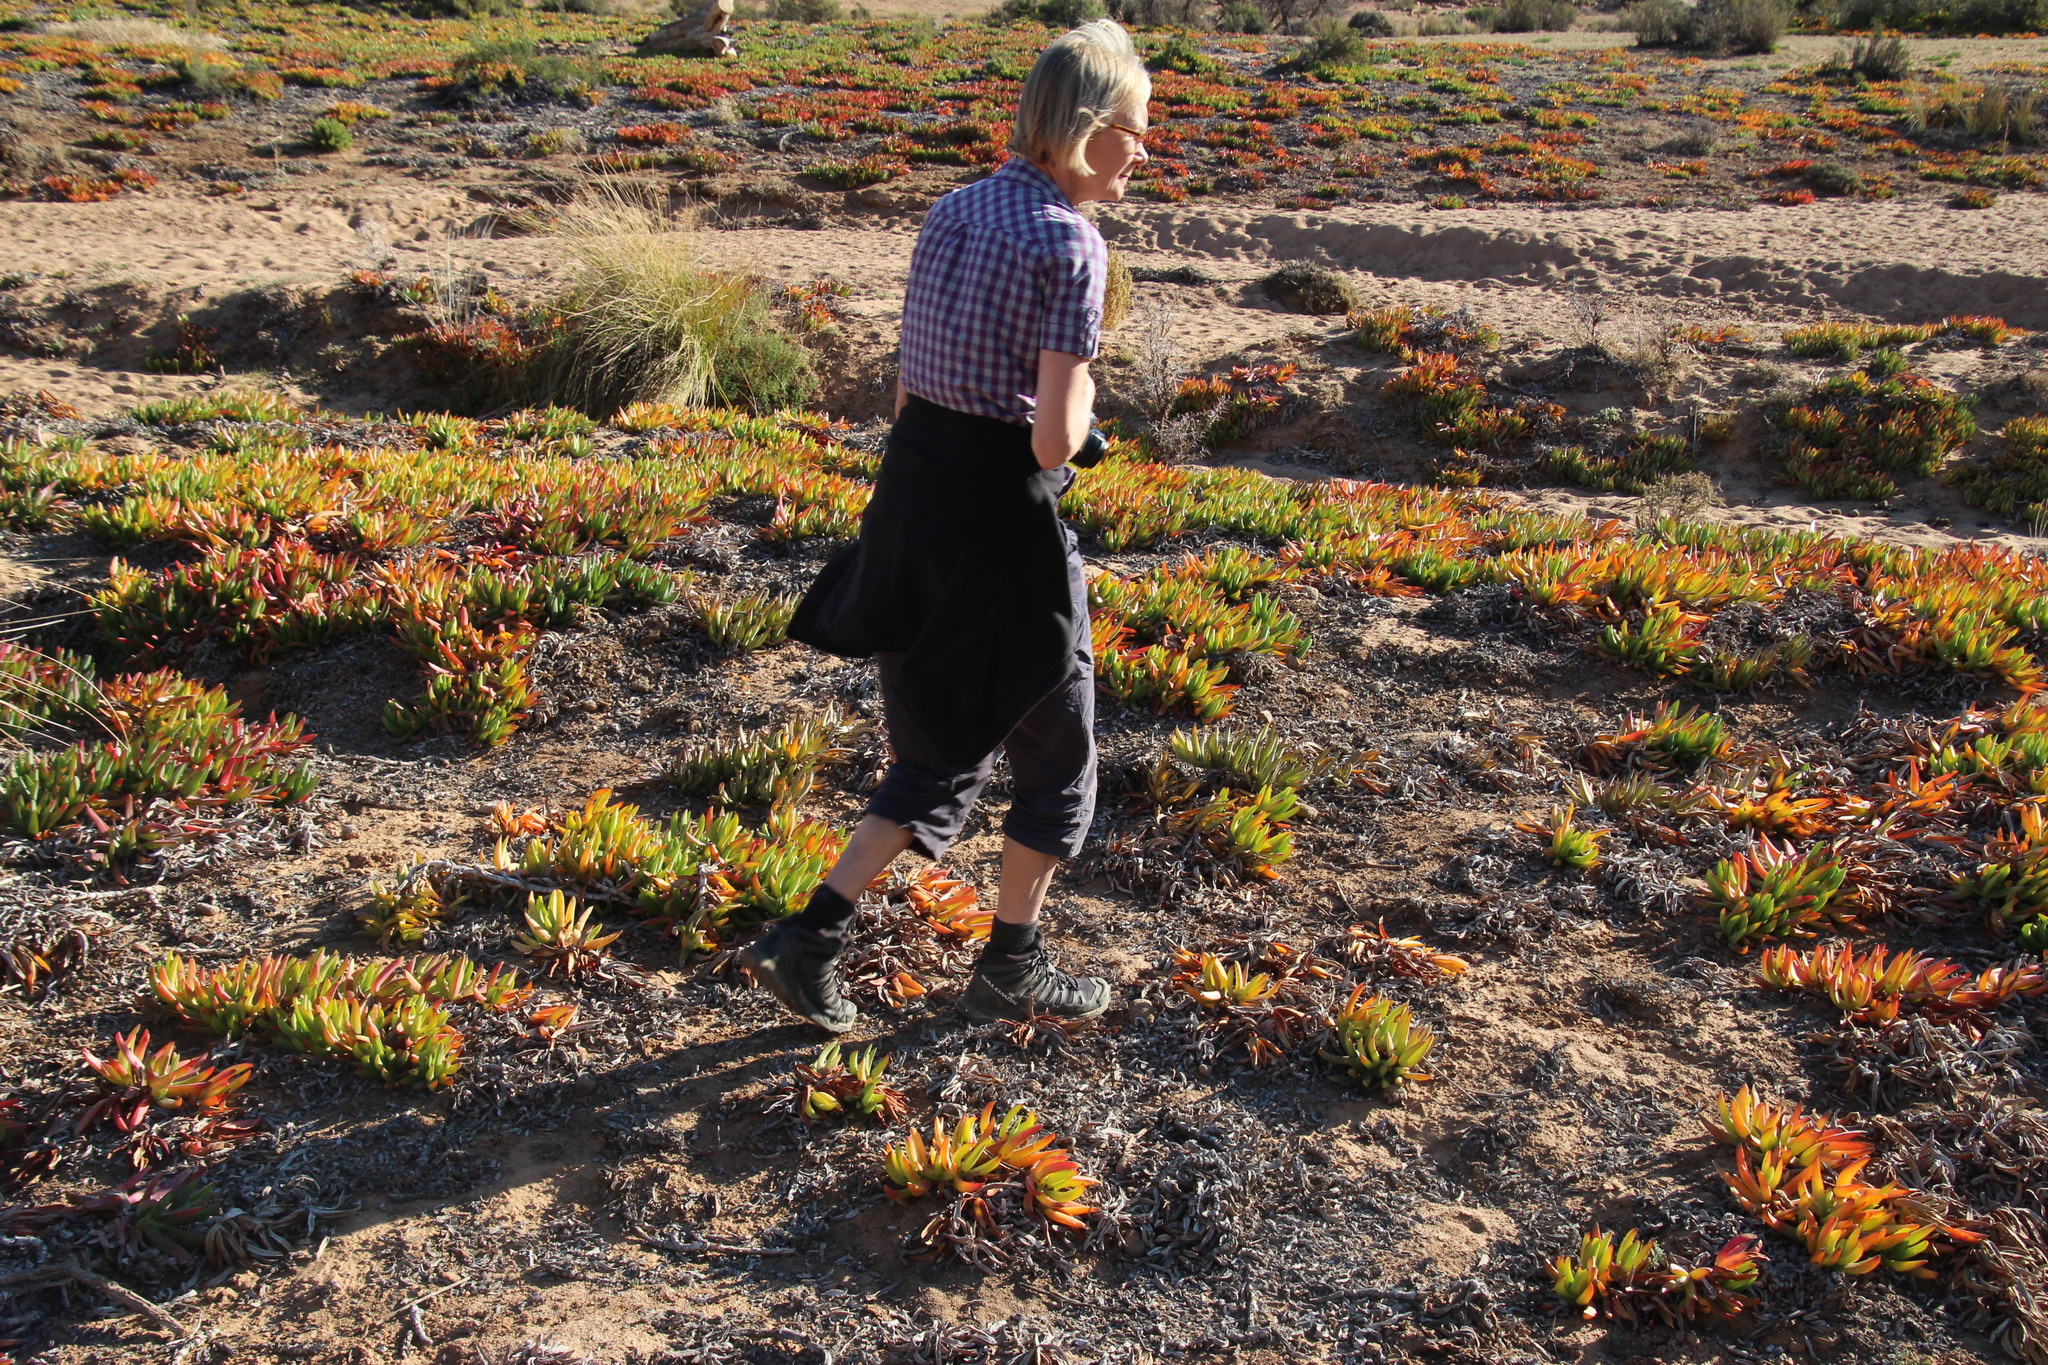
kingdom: Plantae
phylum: Tracheophyta
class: Magnoliopsida
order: Caryophyllales
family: Aizoaceae
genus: Carpobrotus
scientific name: Carpobrotus edulis
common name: Hottentot-fig
